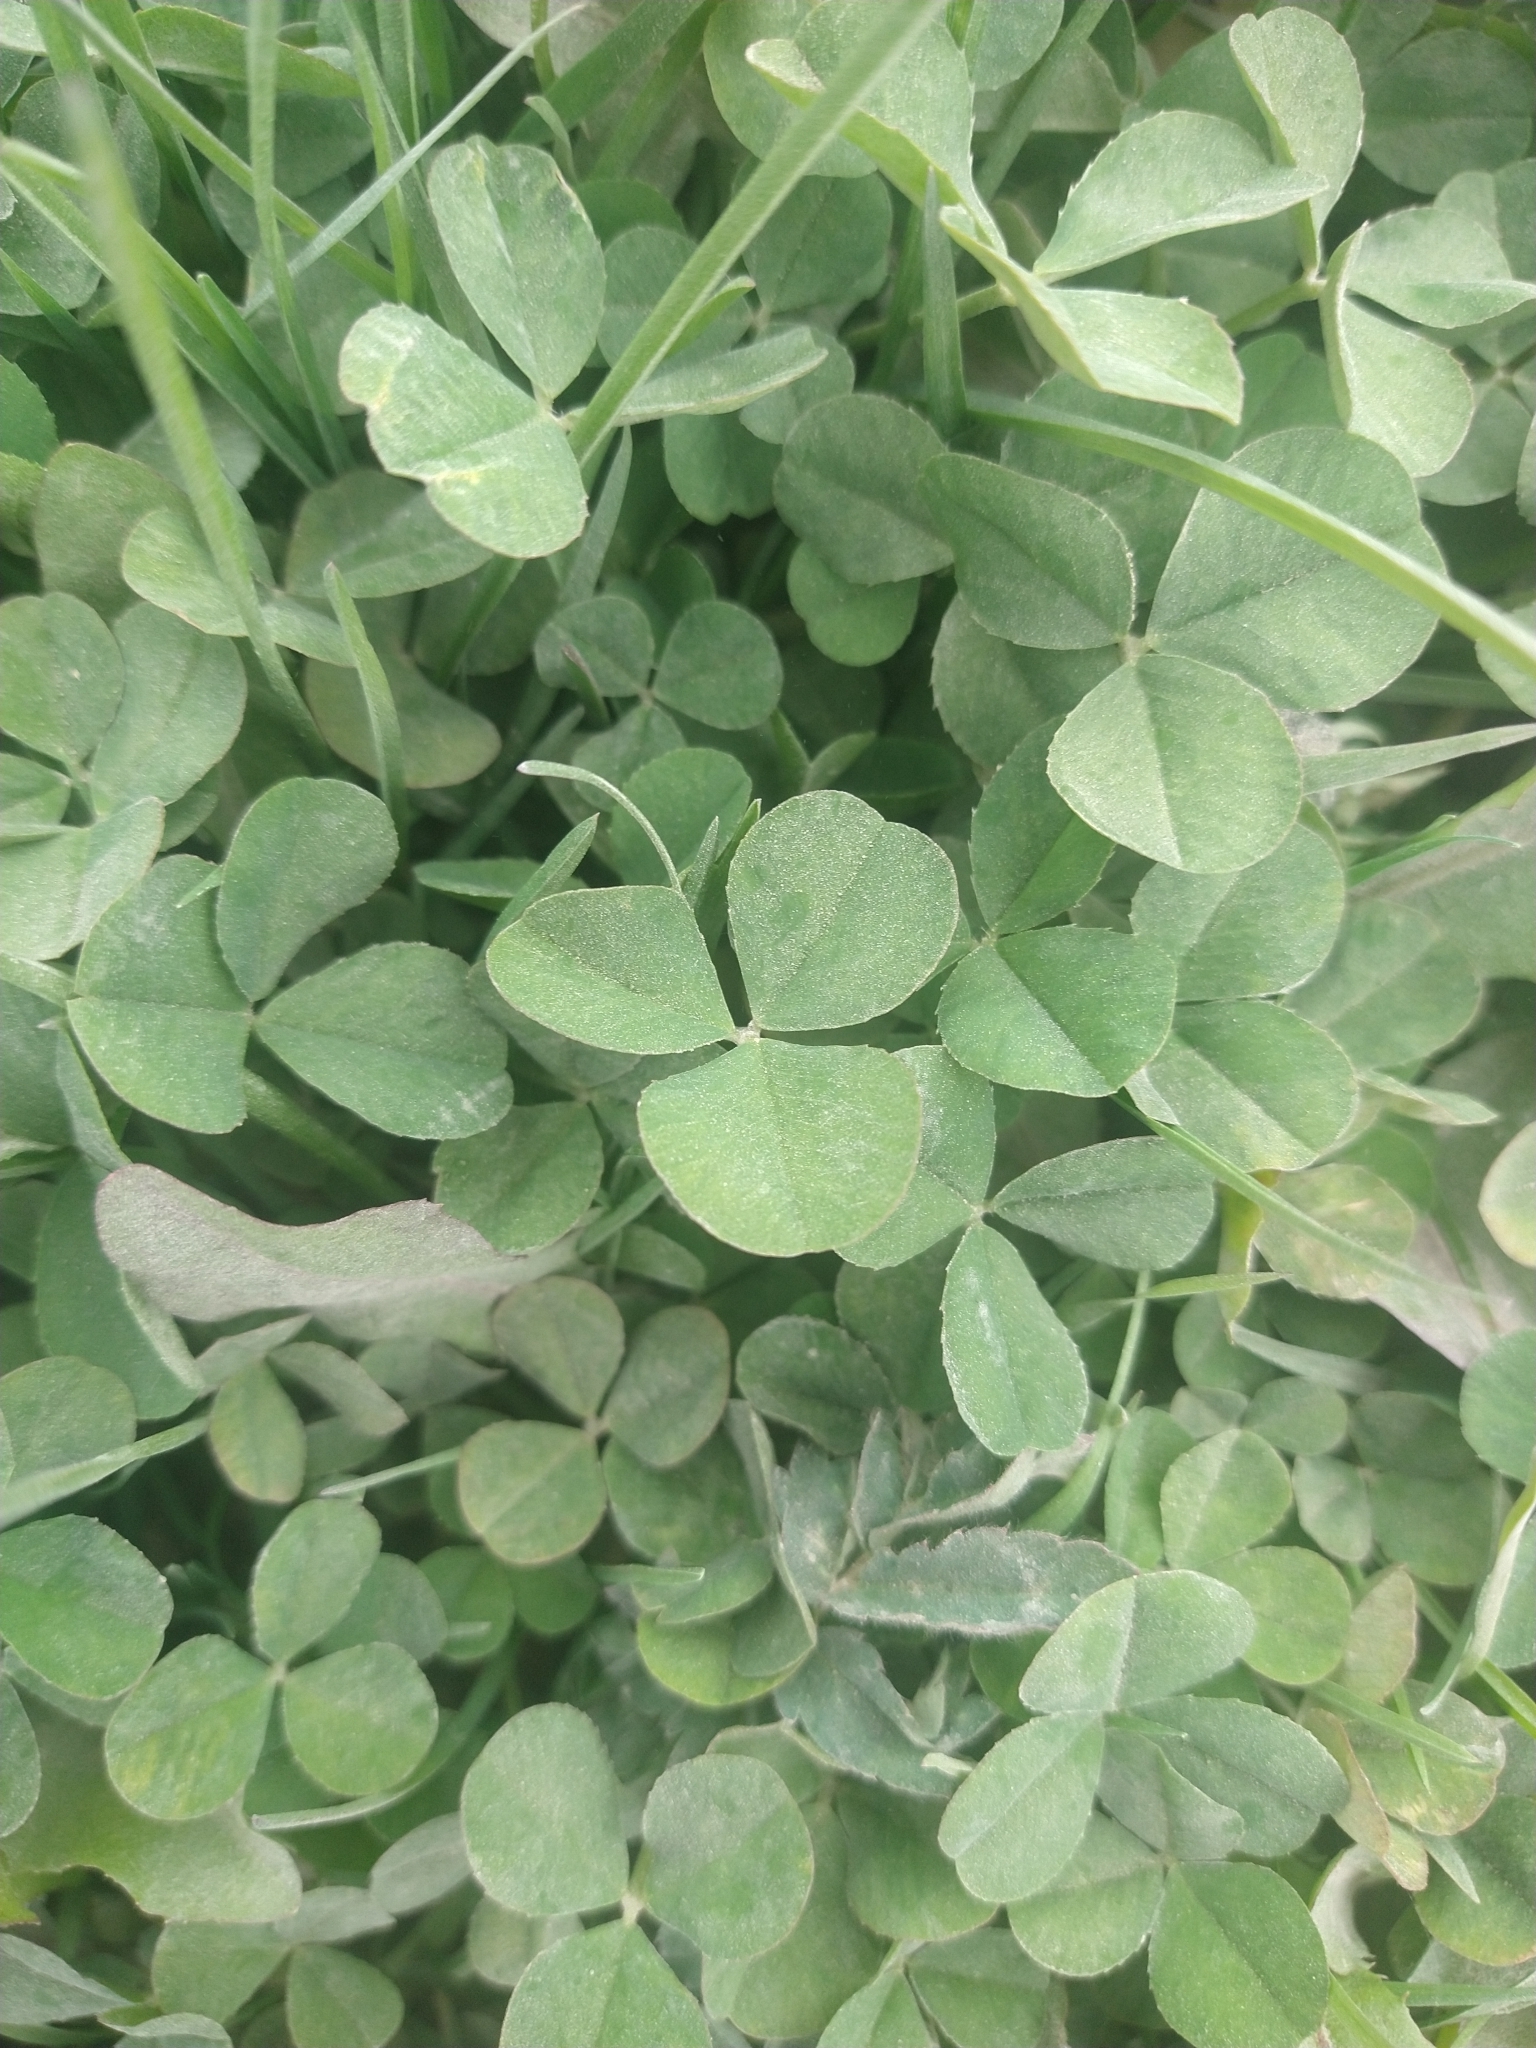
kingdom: Plantae
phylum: Tracheophyta
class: Magnoliopsida
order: Fabales
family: Fabaceae
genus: Trifolium
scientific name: Trifolium repens
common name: White clover
